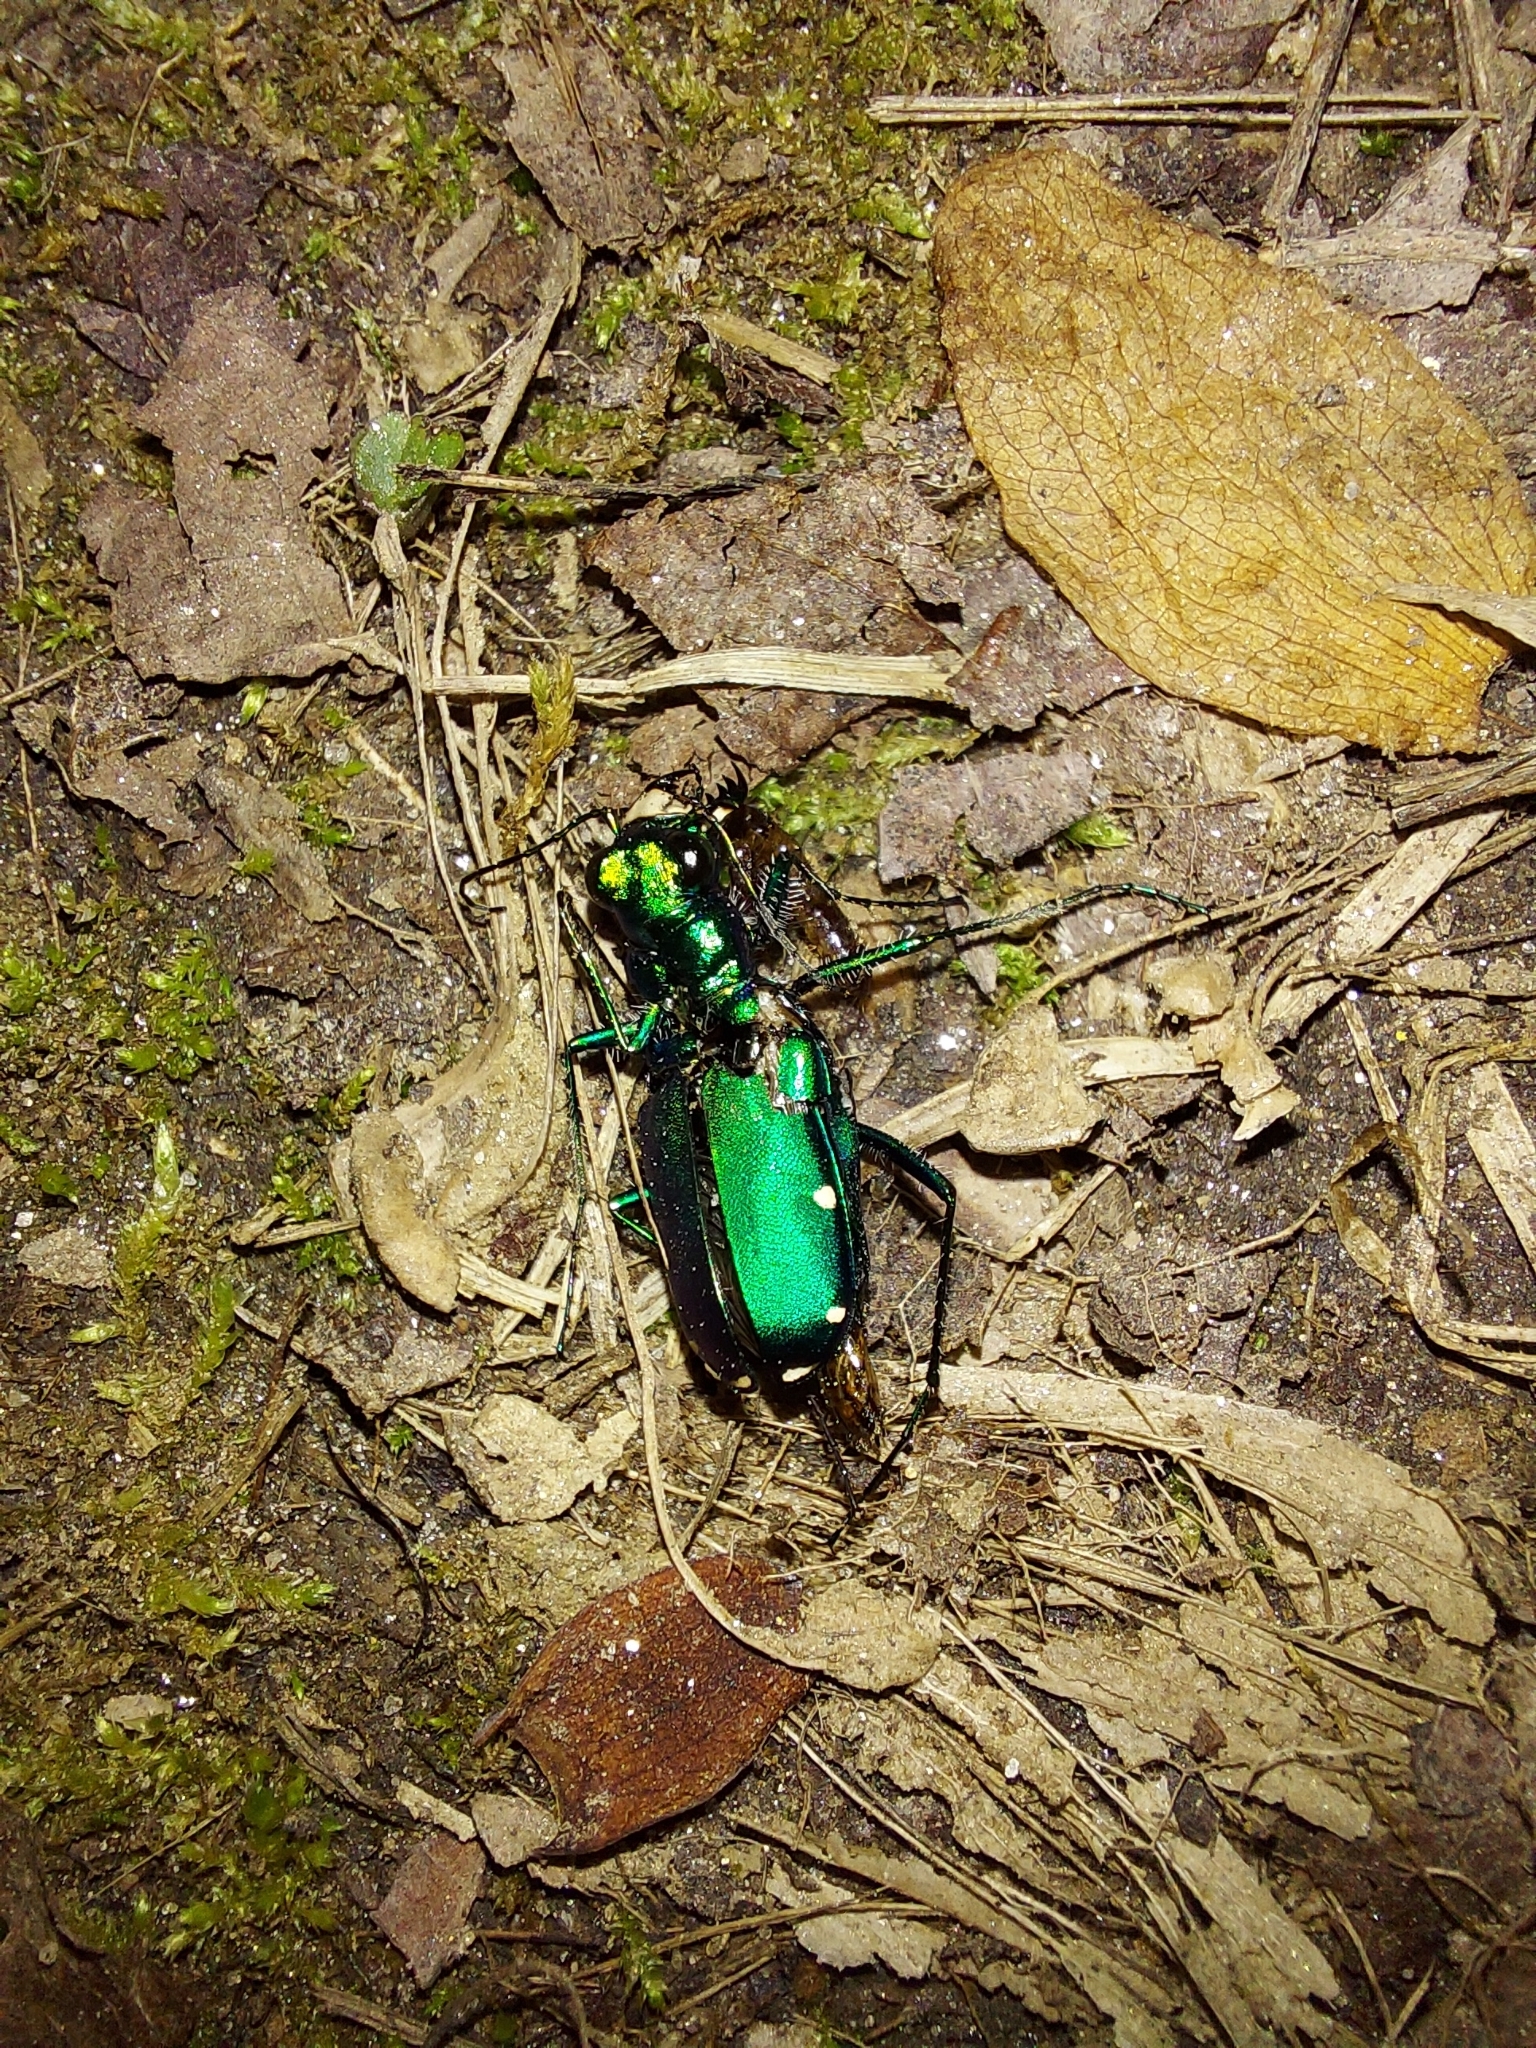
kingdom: Animalia
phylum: Arthropoda
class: Insecta
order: Coleoptera
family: Carabidae
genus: Cicindela
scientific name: Cicindela sexguttata
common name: Six-spotted tiger beetle
